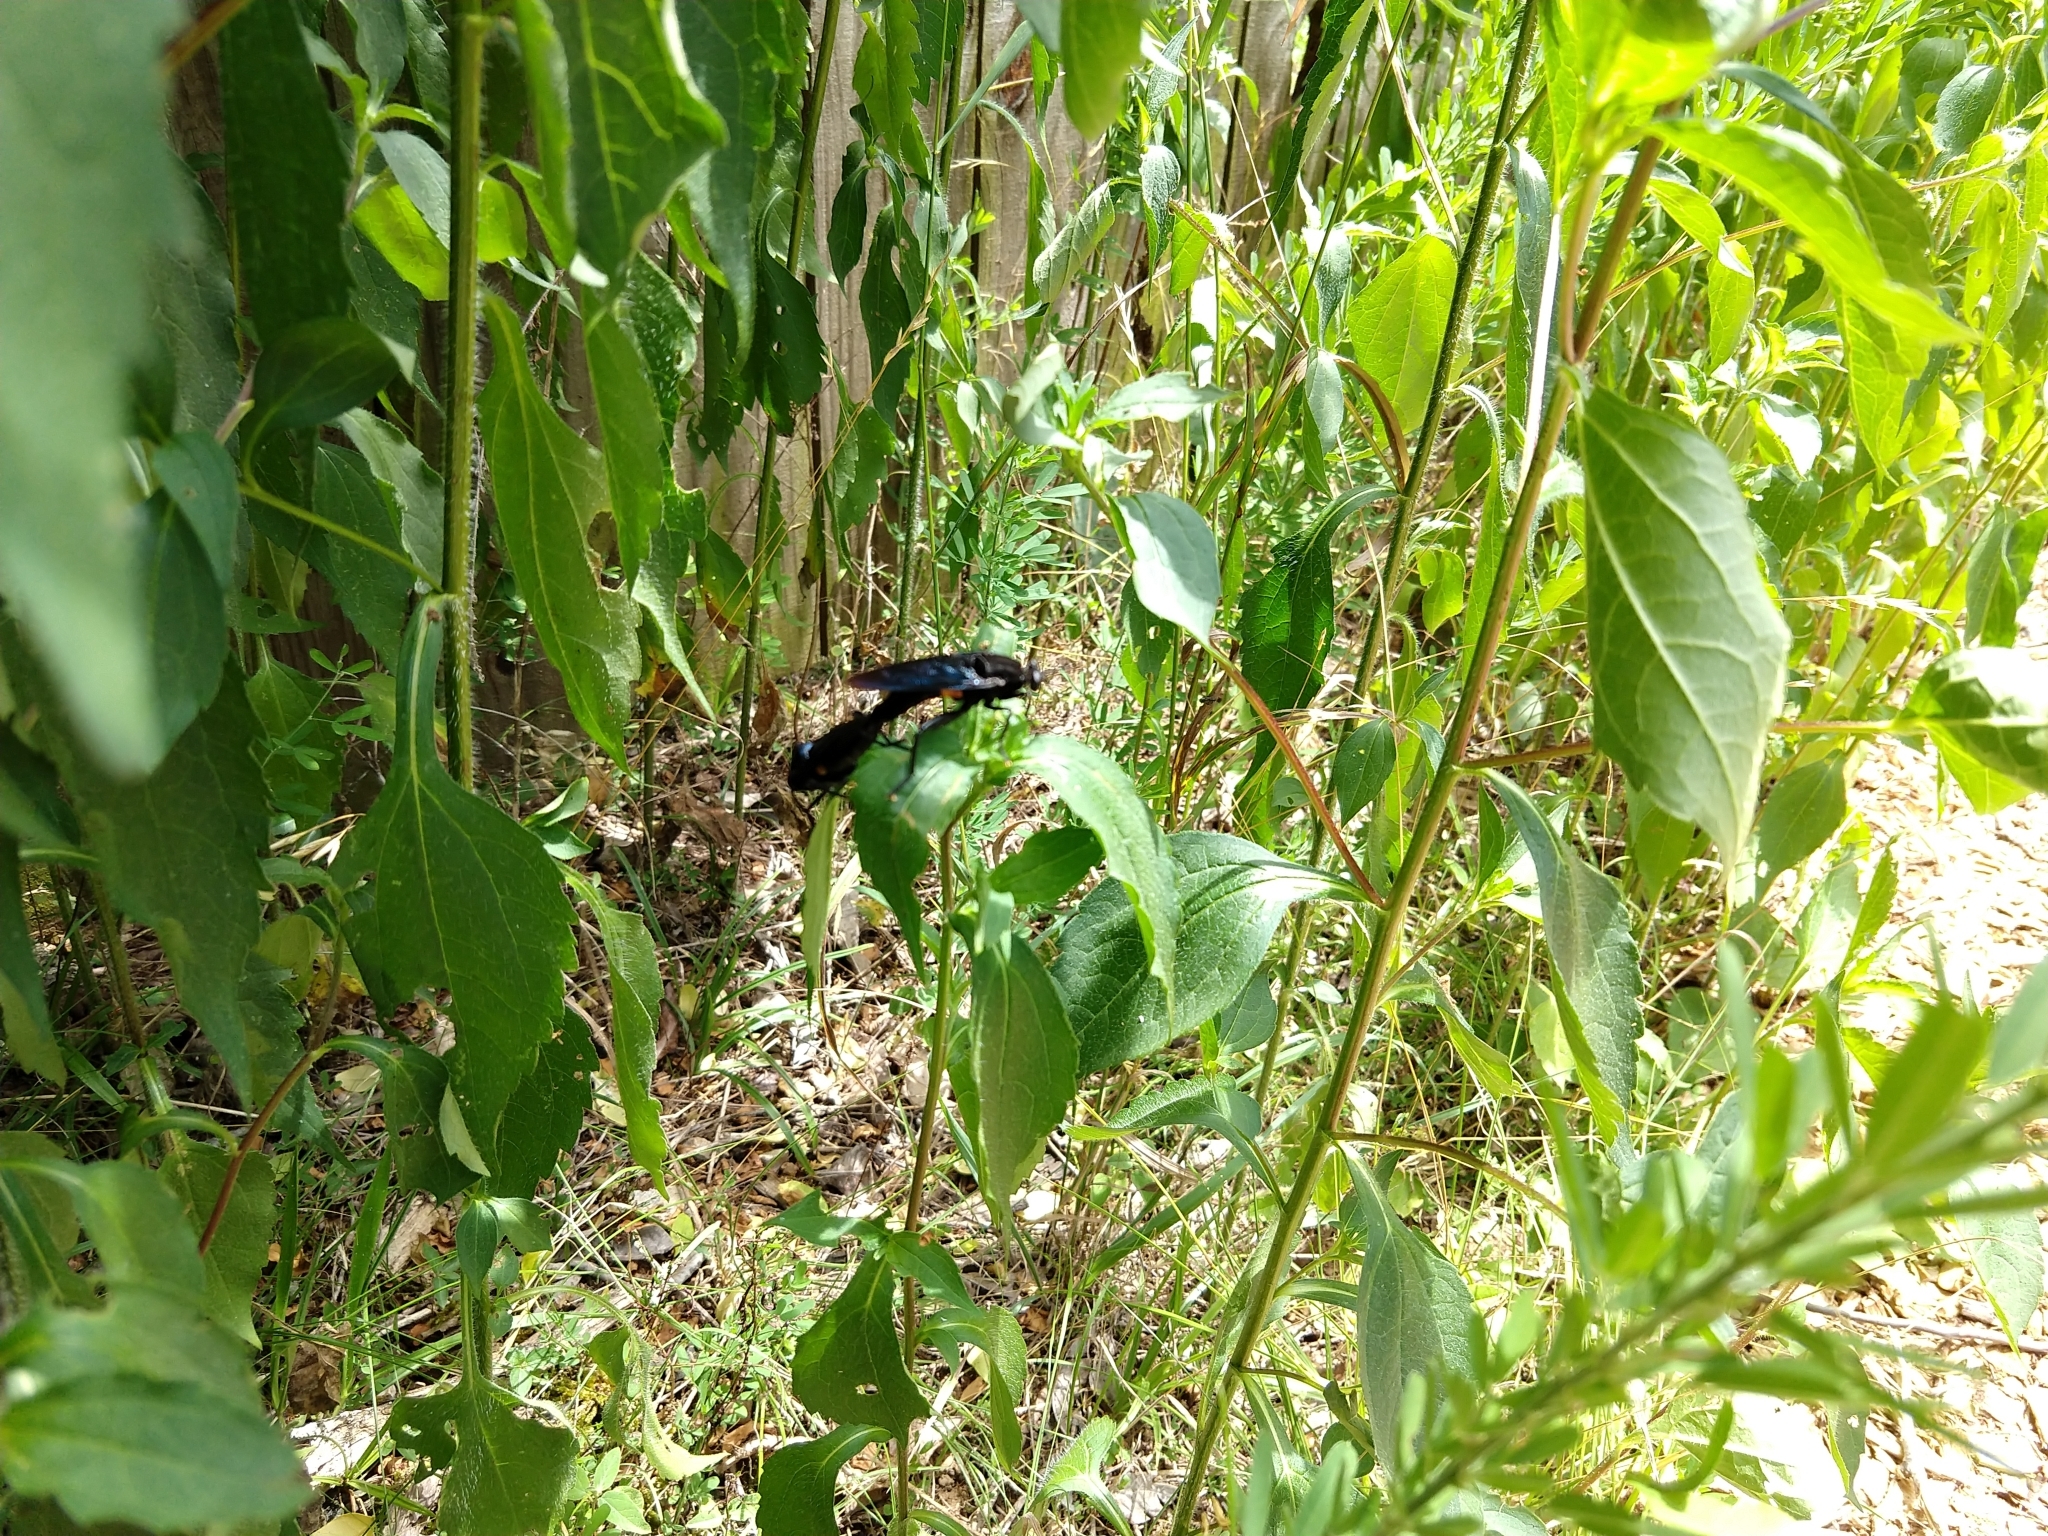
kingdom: Animalia
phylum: Arthropoda
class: Insecta
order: Diptera
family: Mydidae
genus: Mydas
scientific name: Mydas clavatus
